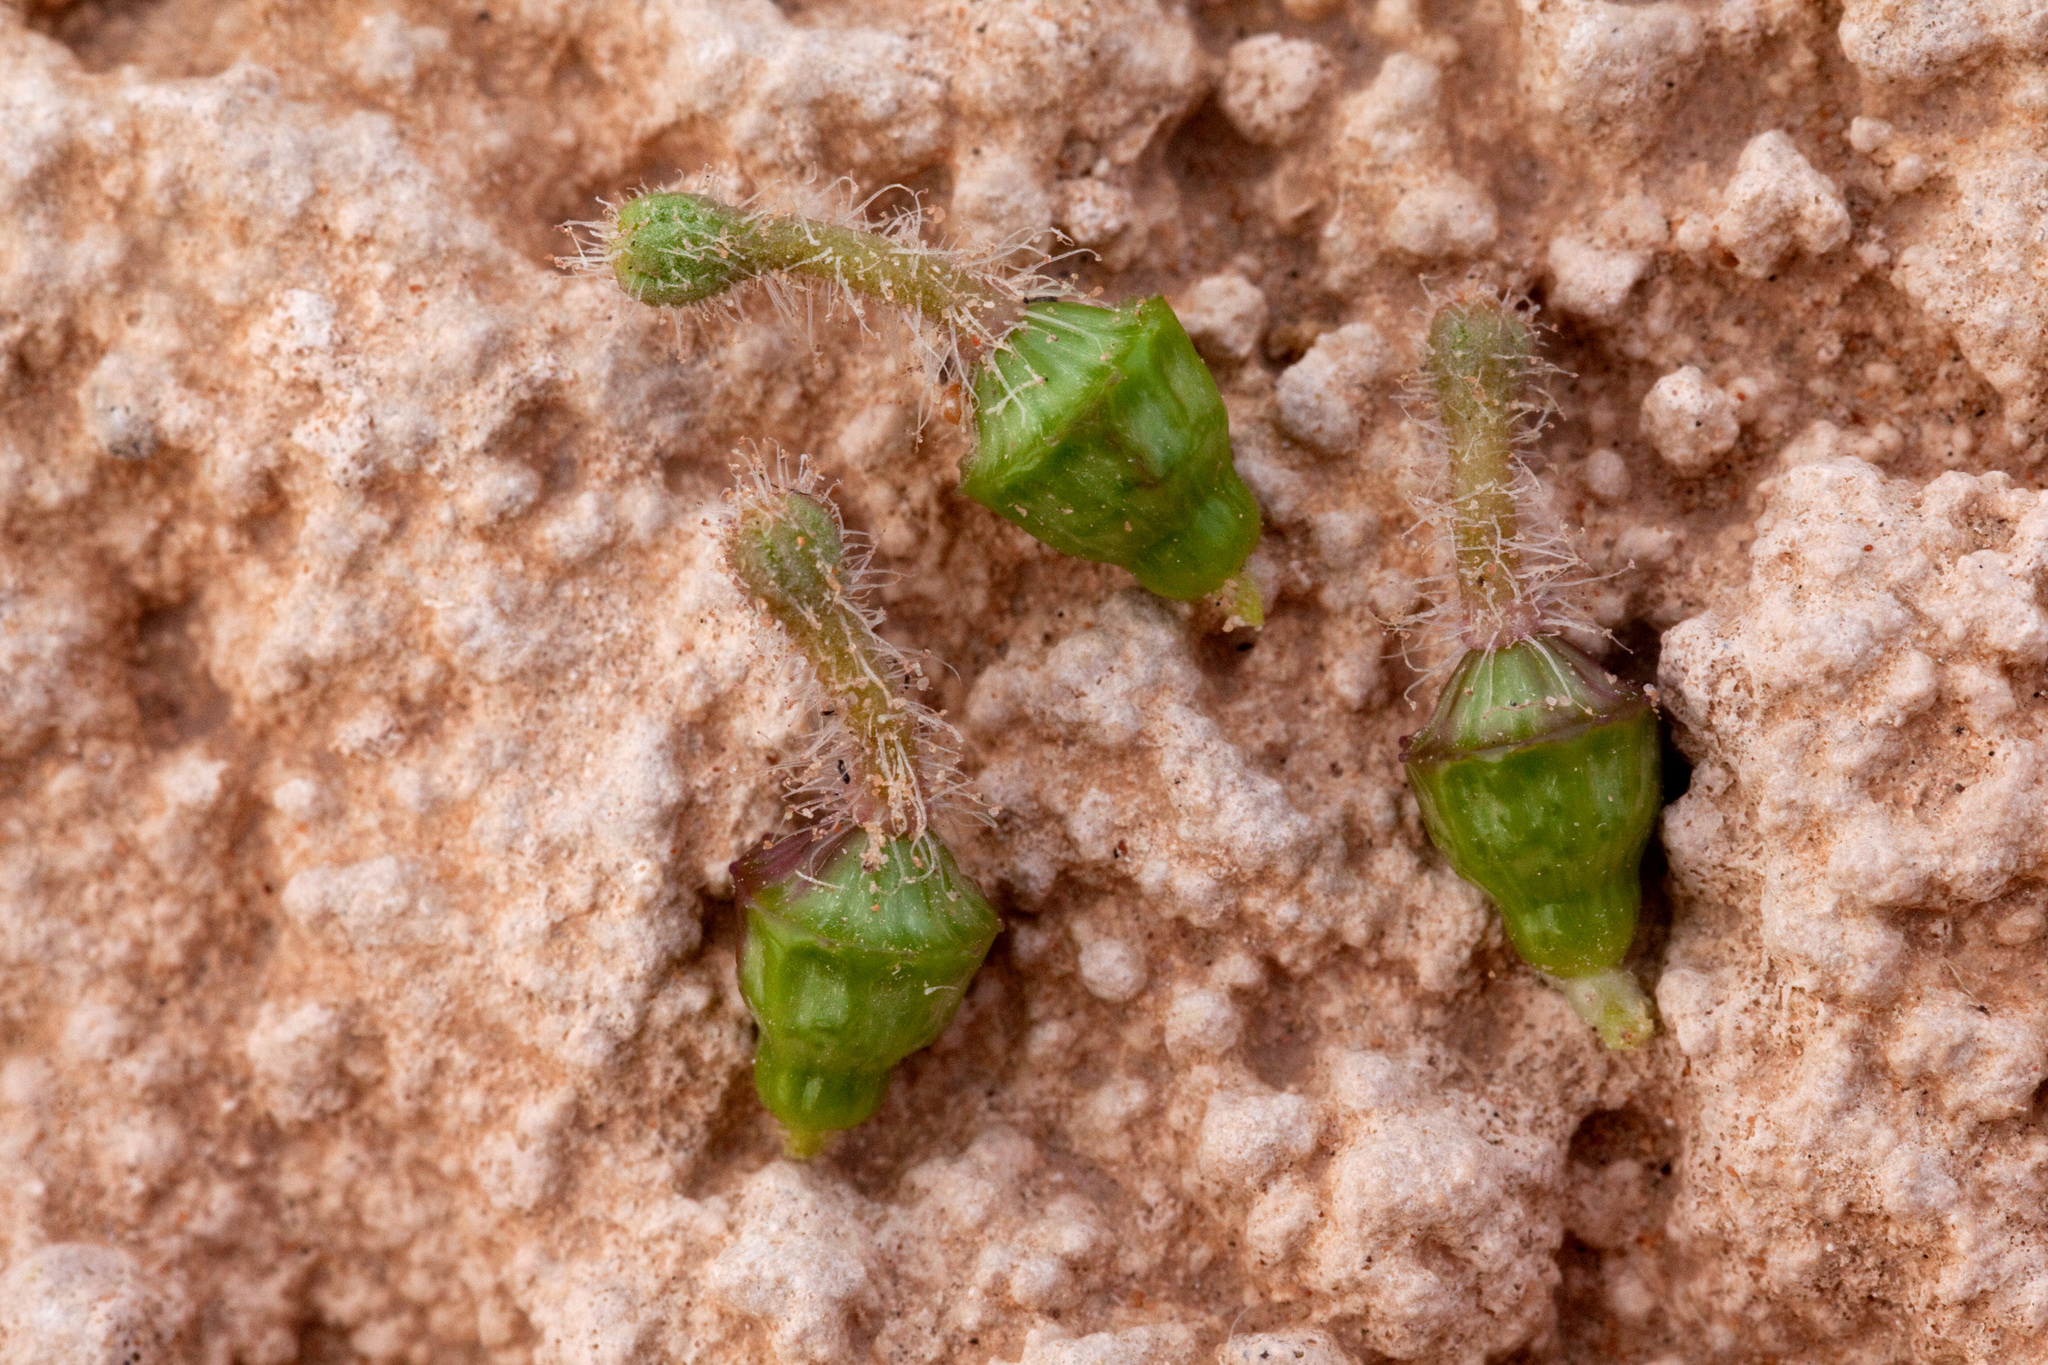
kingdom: Plantae
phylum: Tracheophyta
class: Magnoliopsida
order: Caryophyllales
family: Nyctaginaceae
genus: Nyctaginia
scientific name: Nyctaginia capitata
